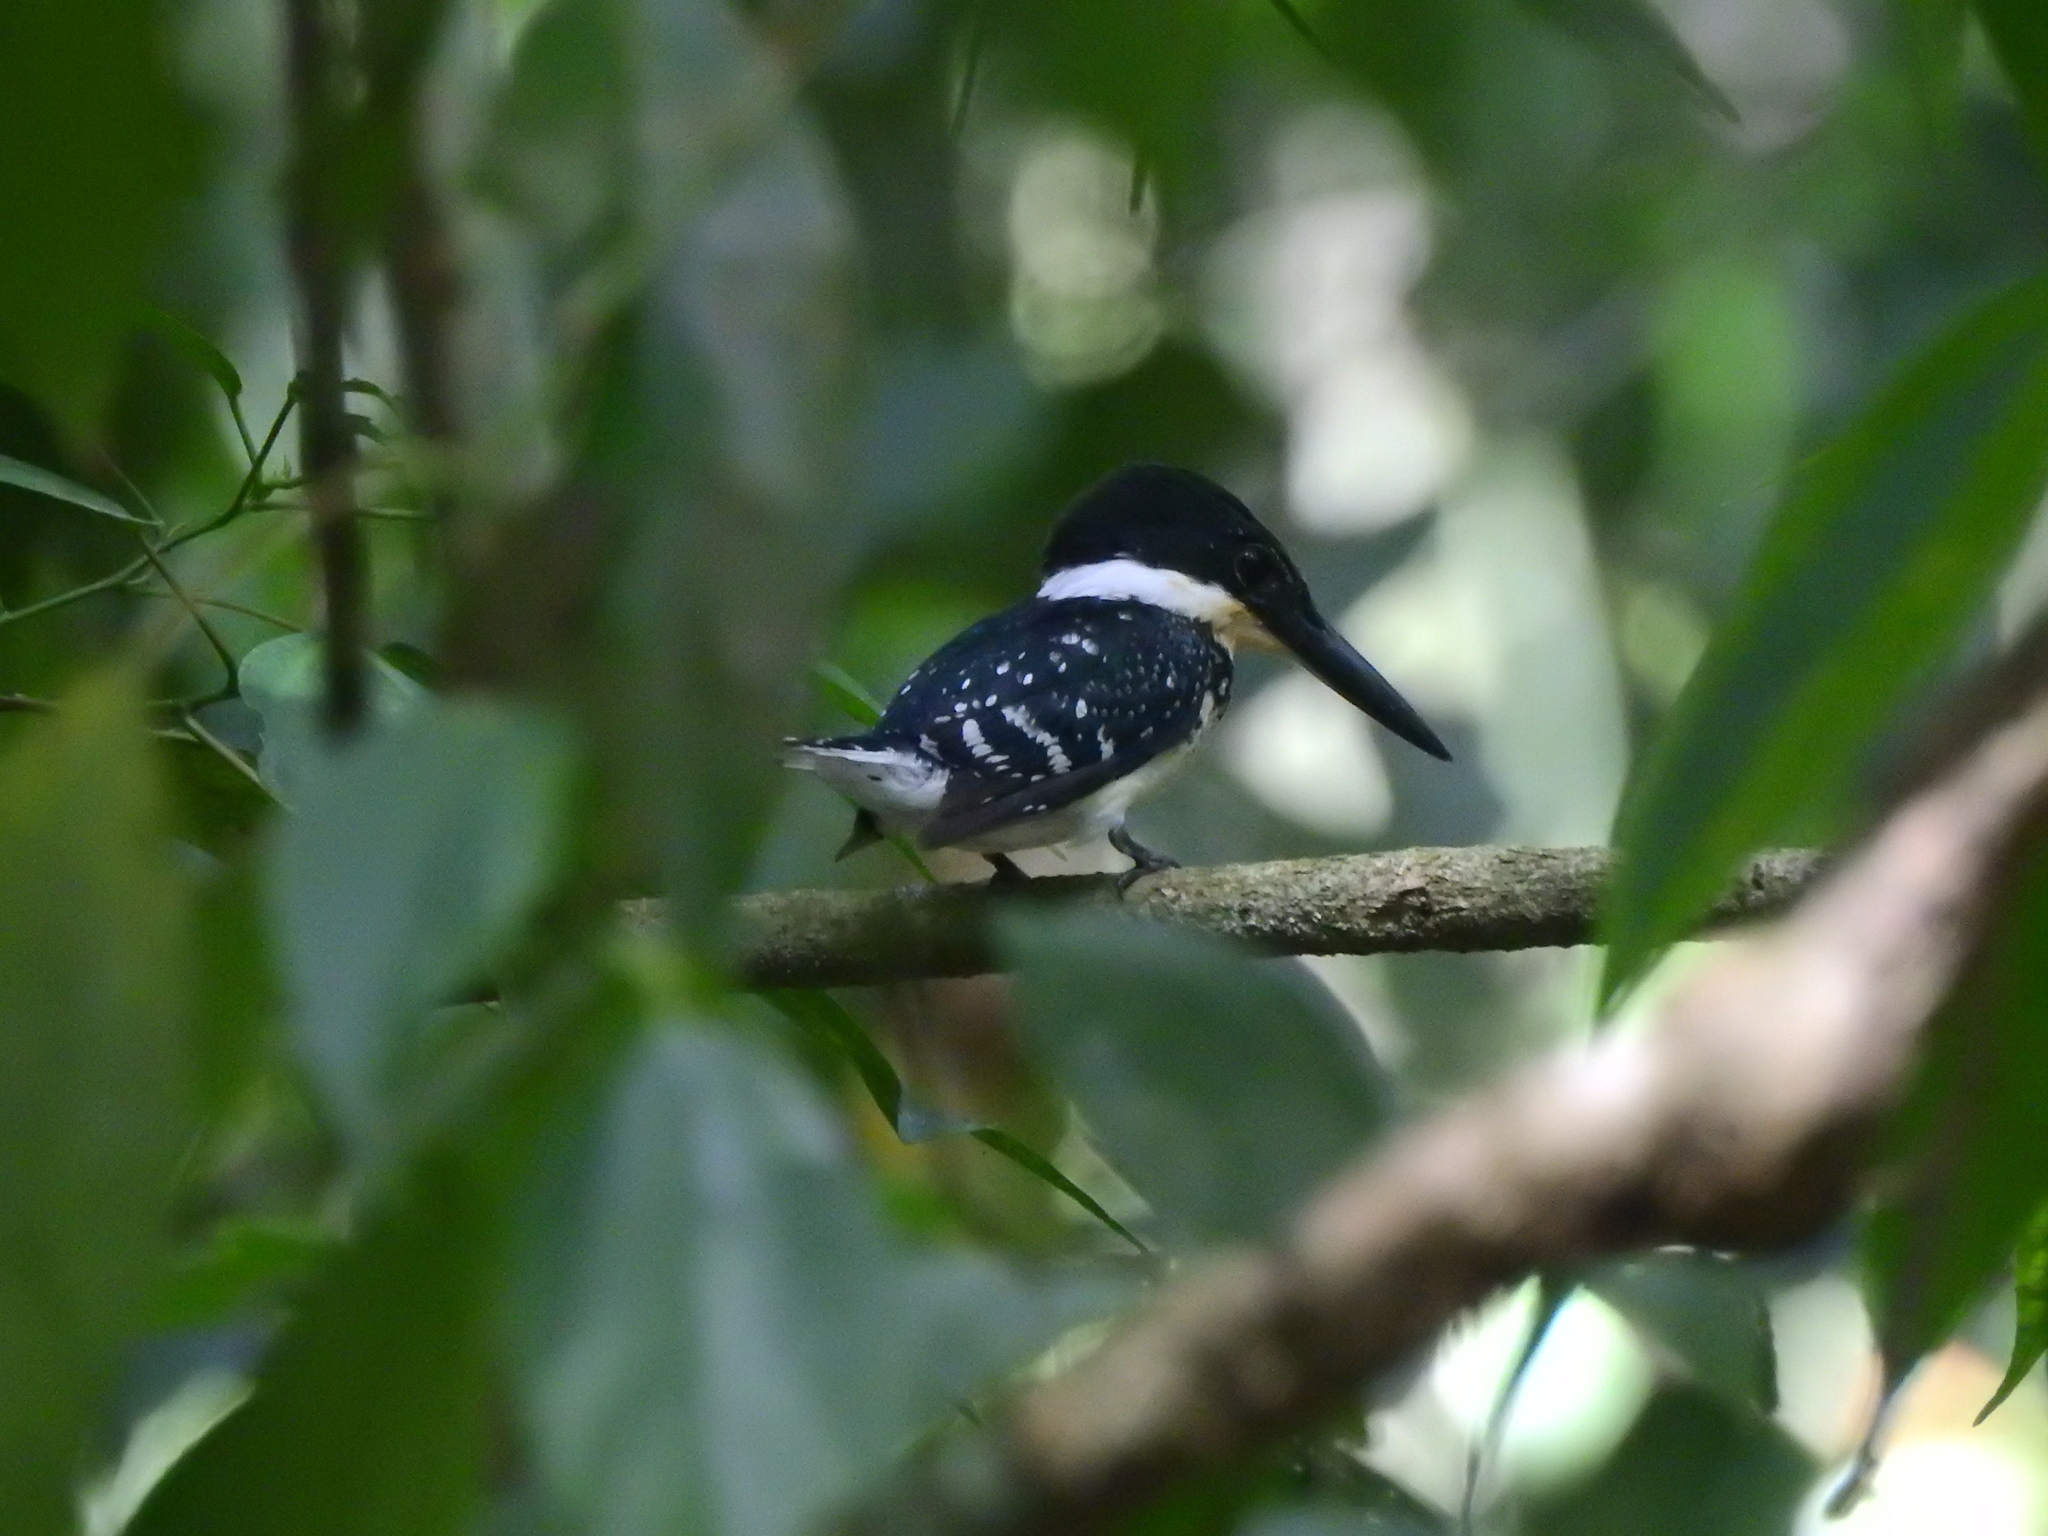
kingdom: Animalia
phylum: Chordata
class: Aves
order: Coraciiformes
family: Alcedinidae
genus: Chloroceryle
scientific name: Chloroceryle americana
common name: Green kingfisher
